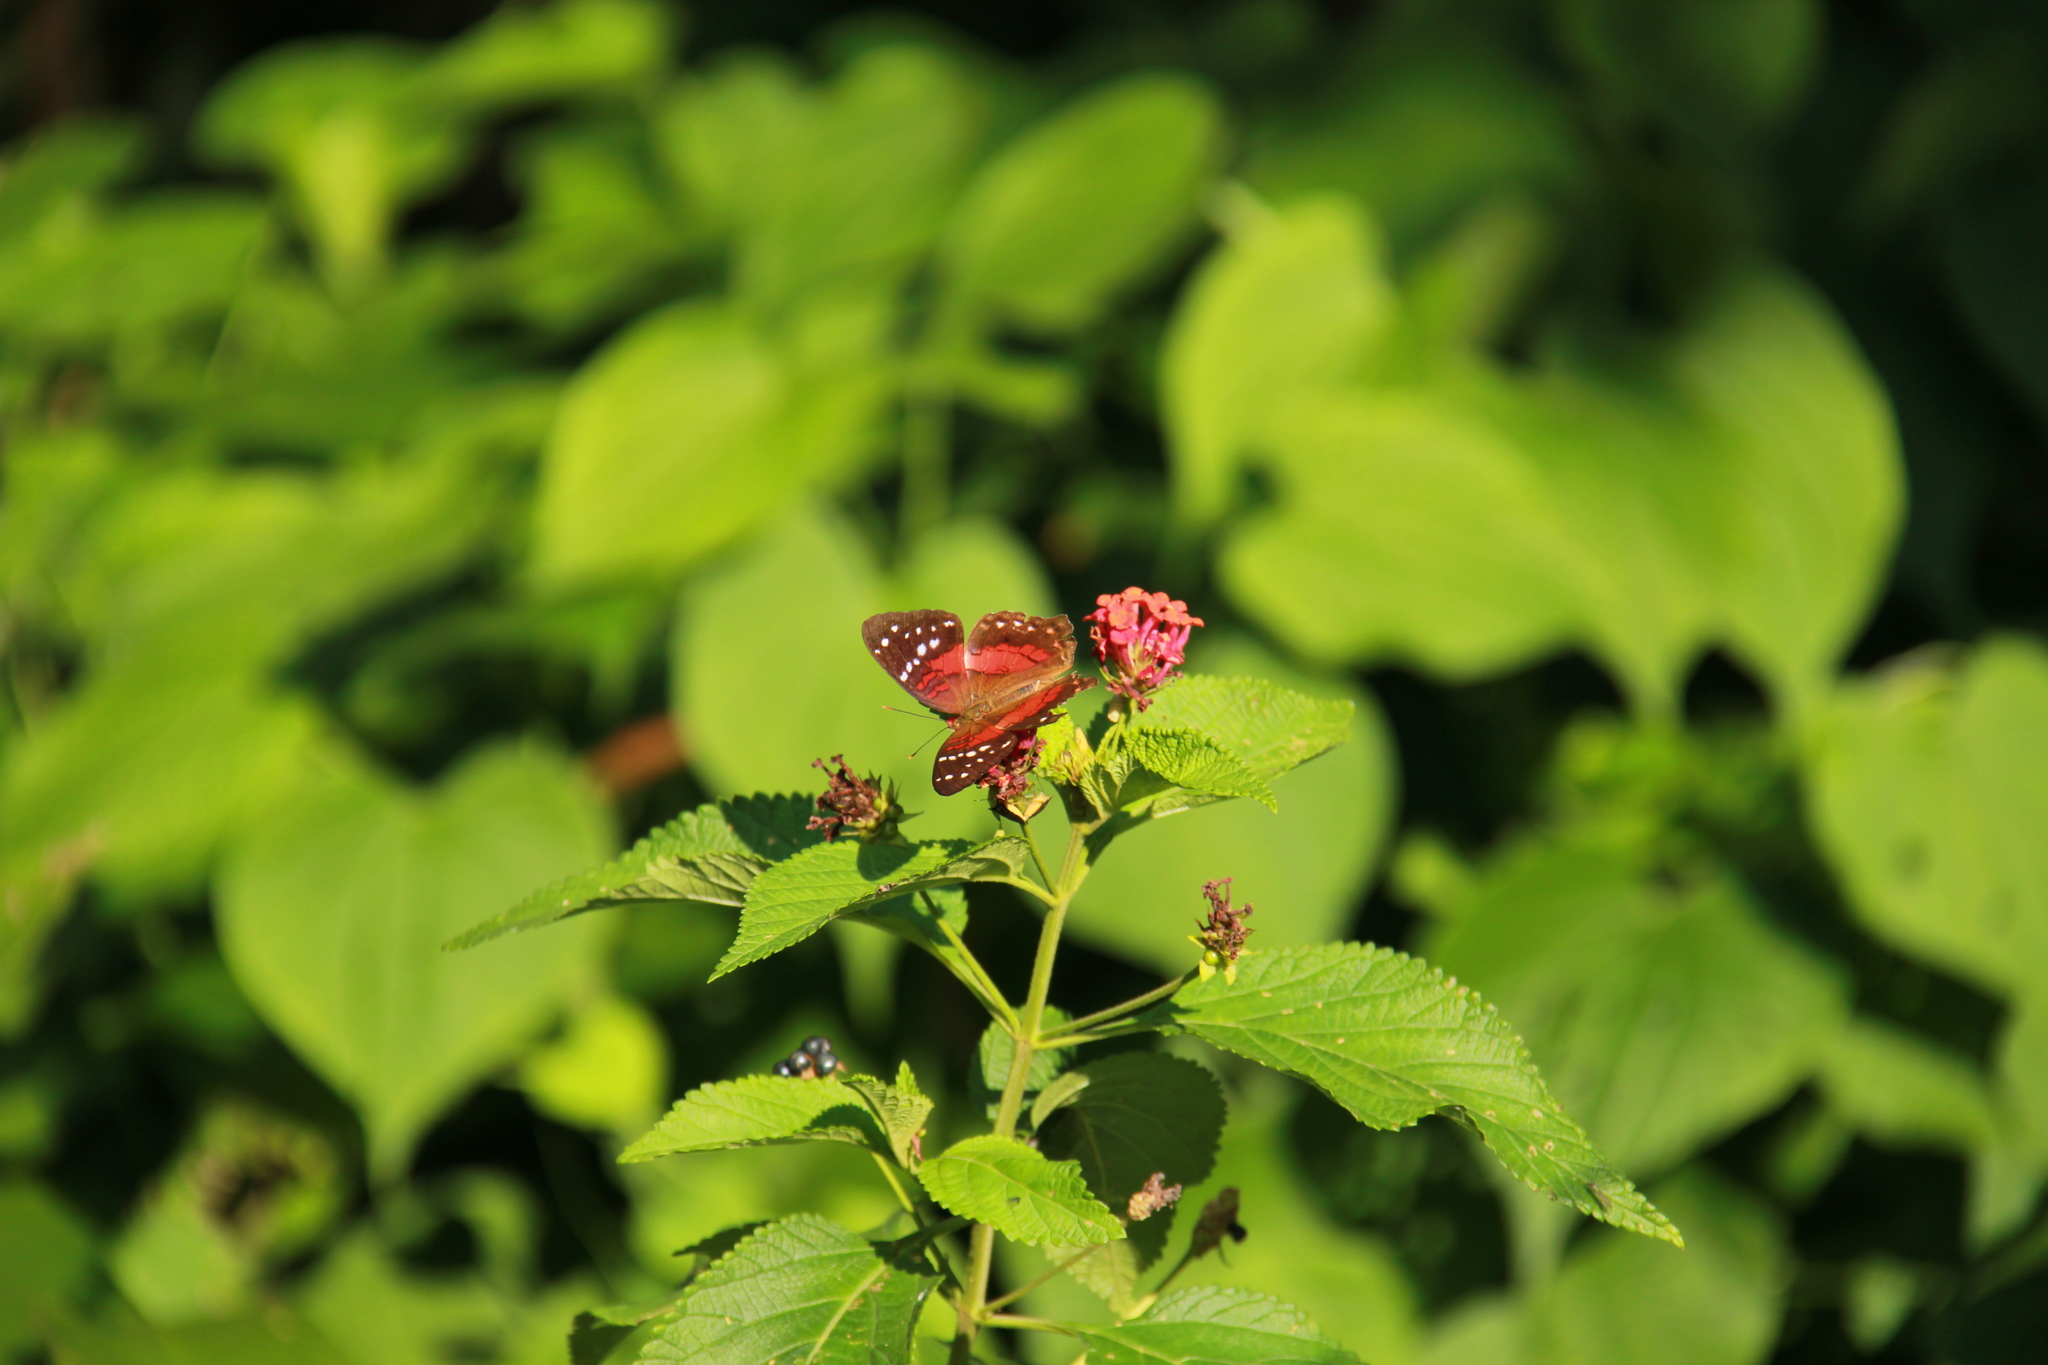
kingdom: Animalia
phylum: Arthropoda
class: Insecta
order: Lepidoptera
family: Nymphalidae
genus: Anartia
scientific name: Anartia amathea
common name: Red peacock
